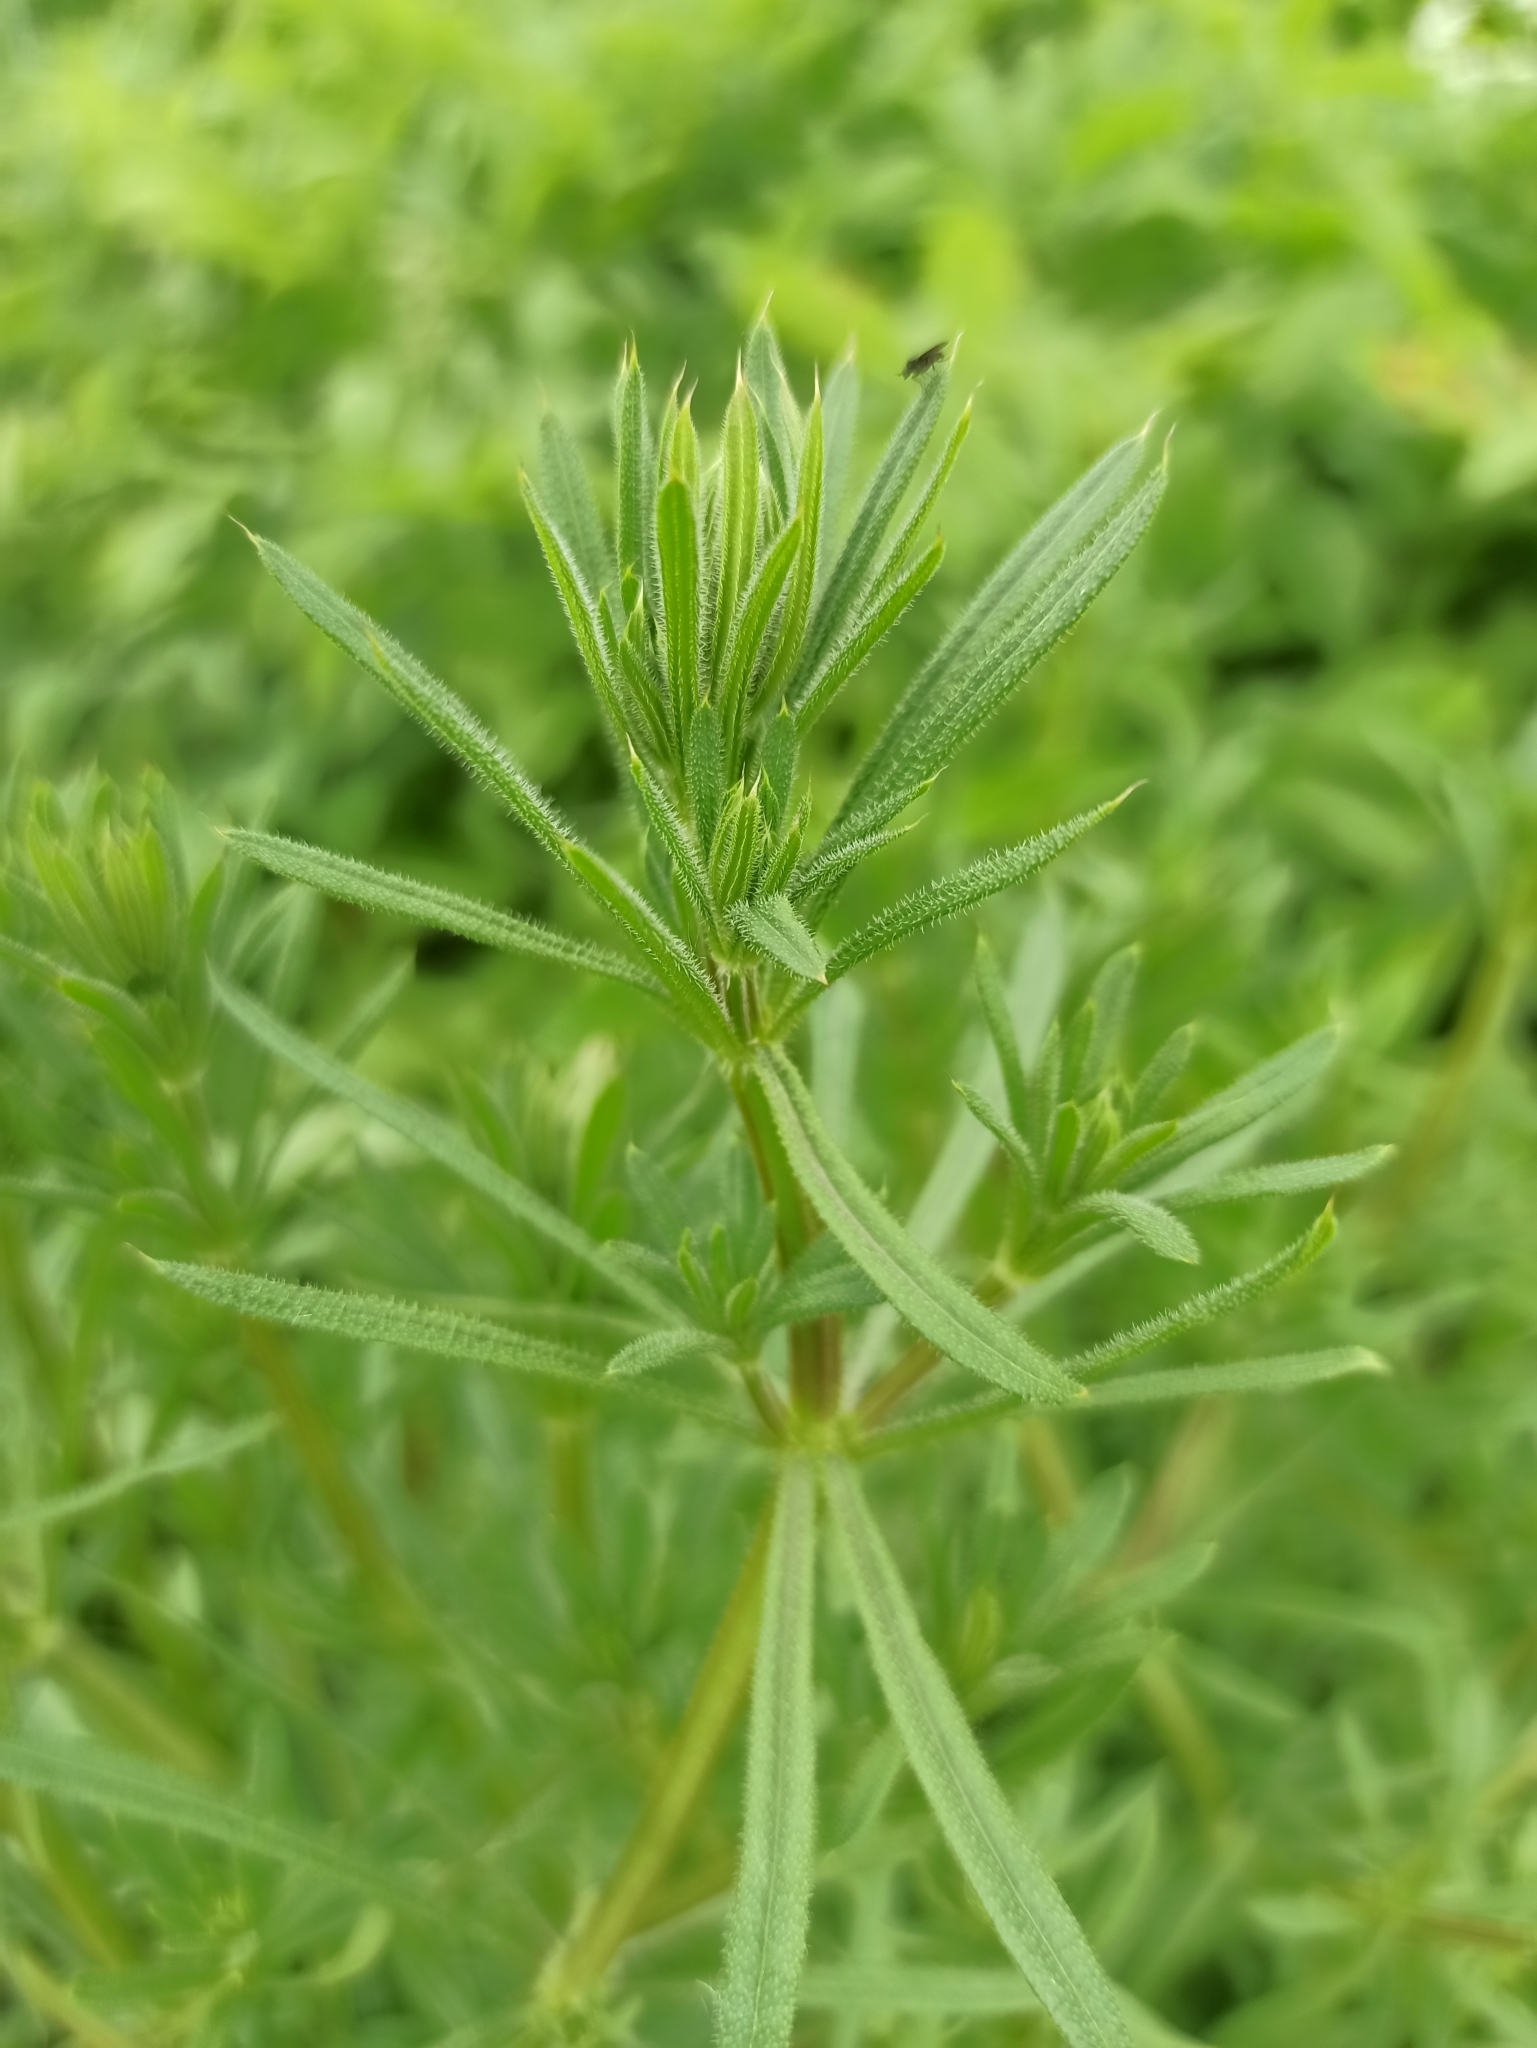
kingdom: Plantae
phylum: Tracheophyta
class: Magnoliopsida
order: Gentianales
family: Rubiaceae
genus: Galium
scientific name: Galium aparine
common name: Cleavers
